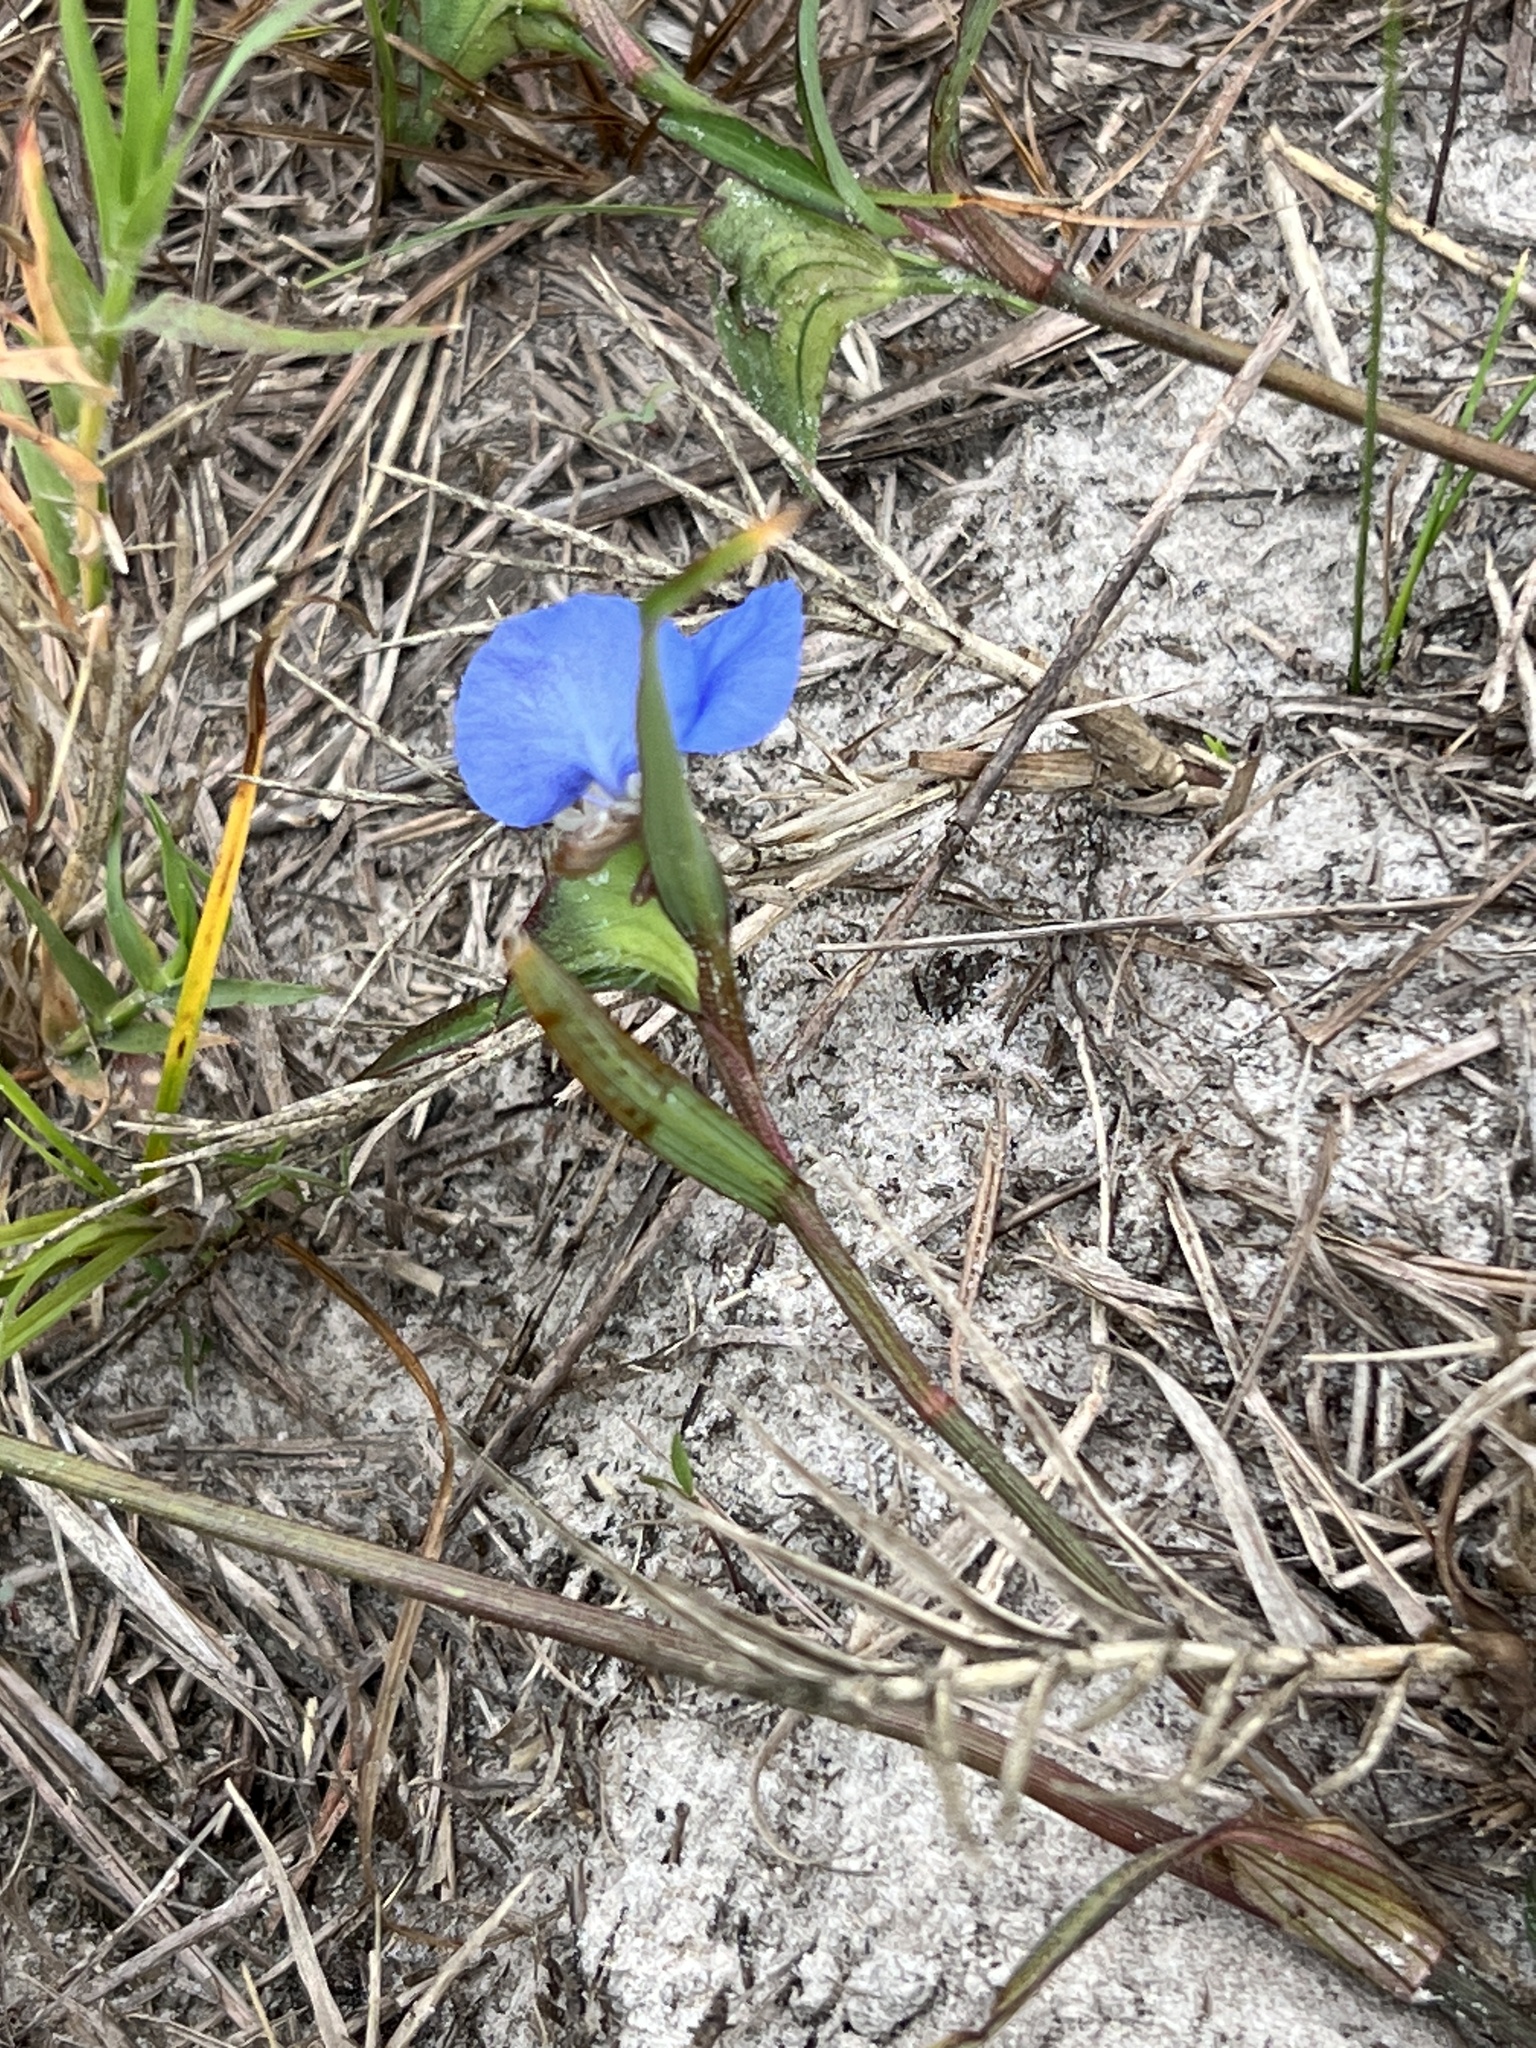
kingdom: Plantae
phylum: Tracheophyta
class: Liliopsida
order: Commelinales
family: Commelinaceae
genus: Commelina
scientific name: Commelina erecta
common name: Blousel blommetjie
